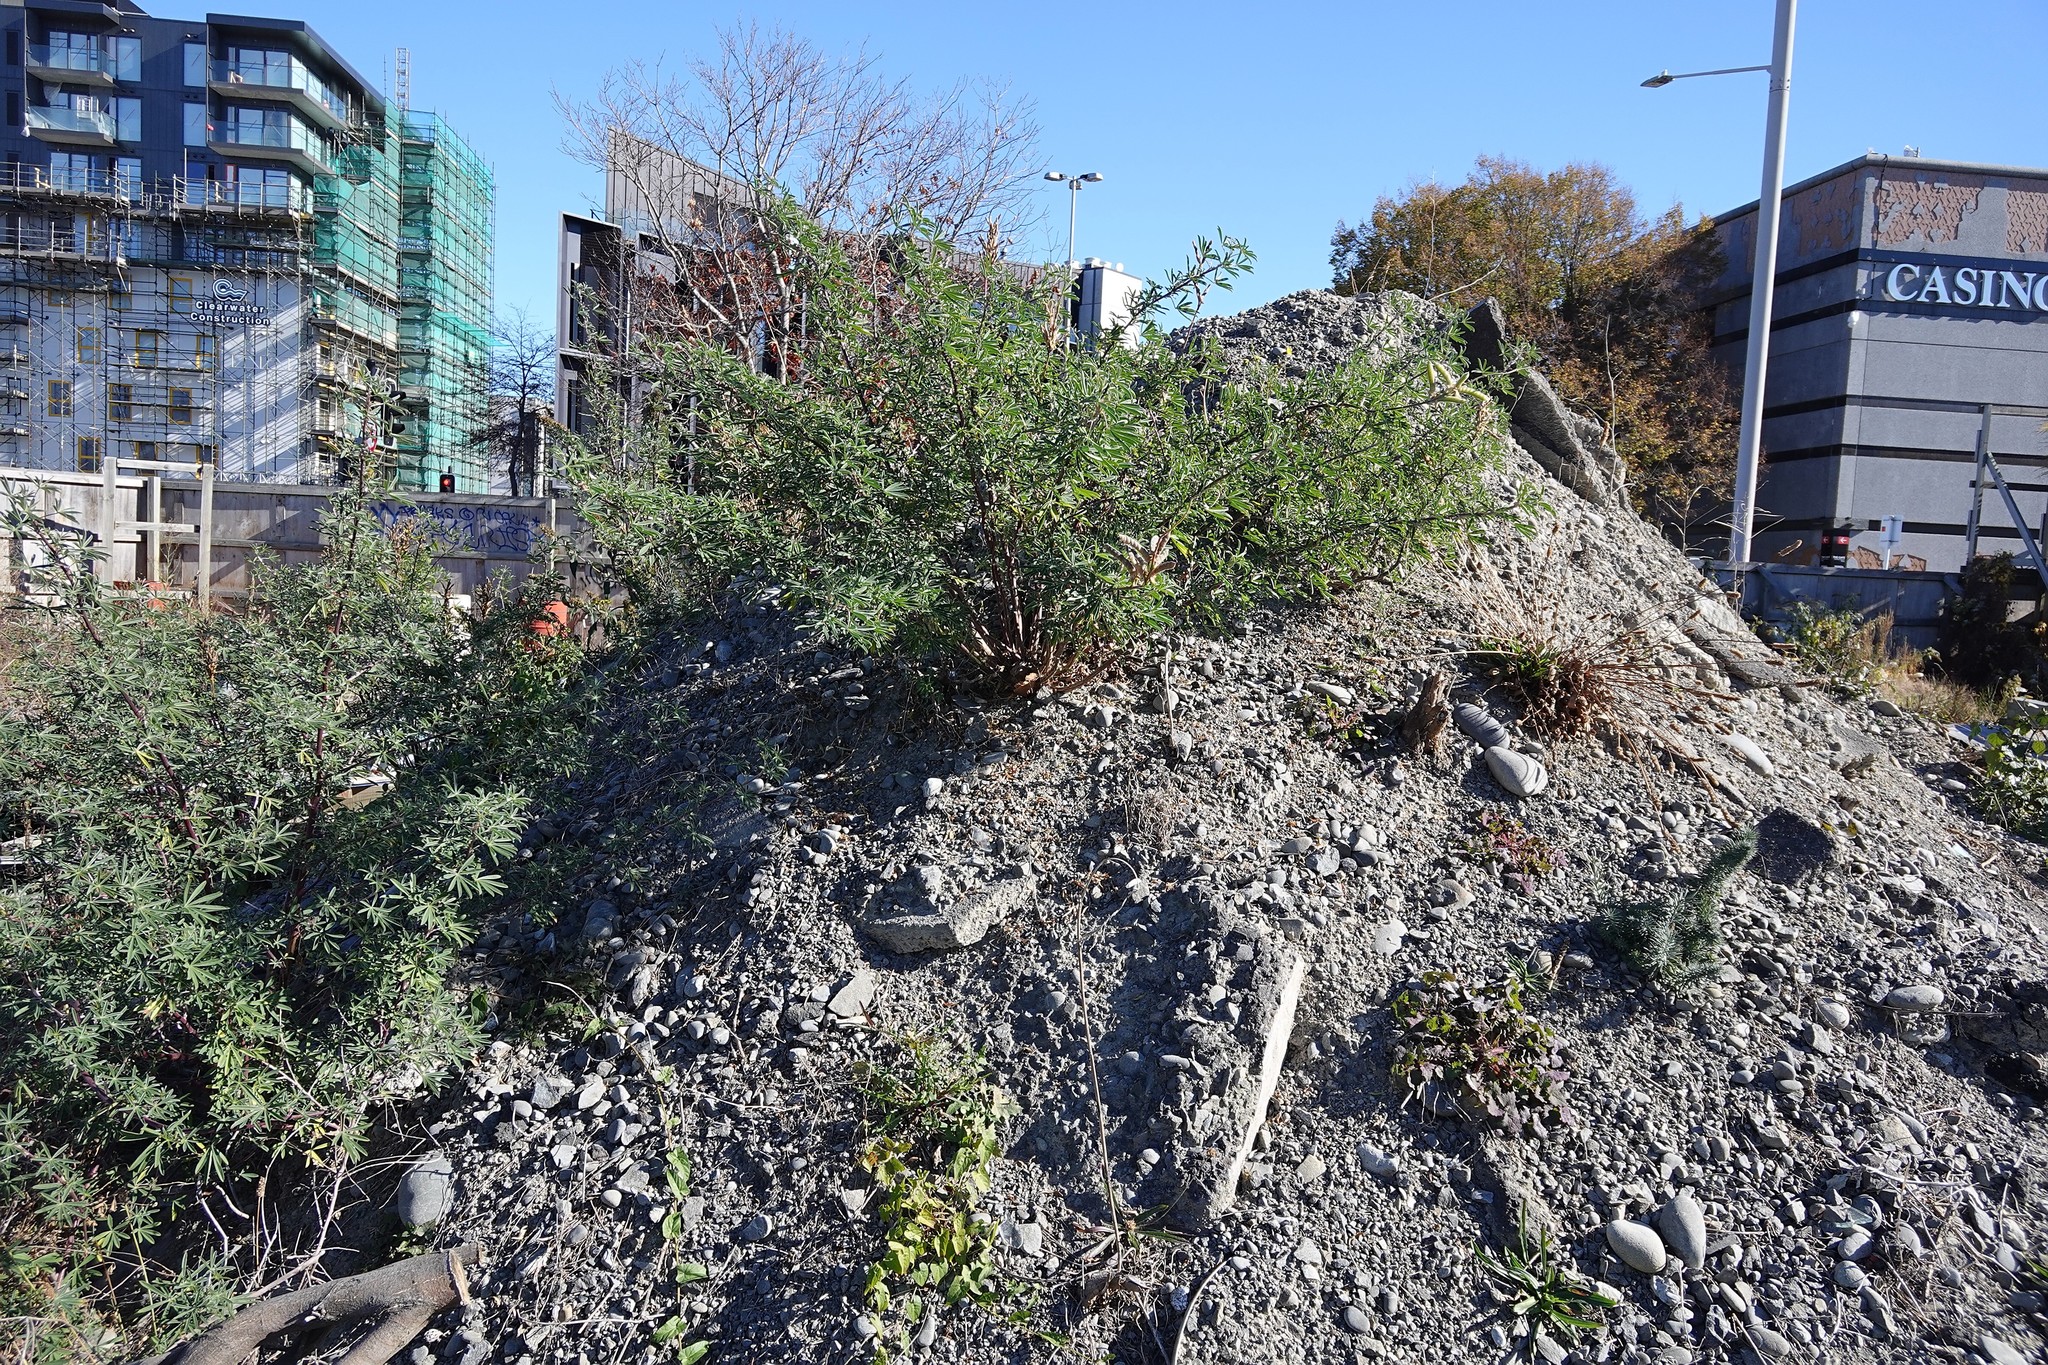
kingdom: Plantae
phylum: Tracheophyta
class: Magnoliopsida
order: Fabales
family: Fabaceae
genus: Lupinus
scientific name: Lupinus arboreus
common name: Yellow bush lupine
